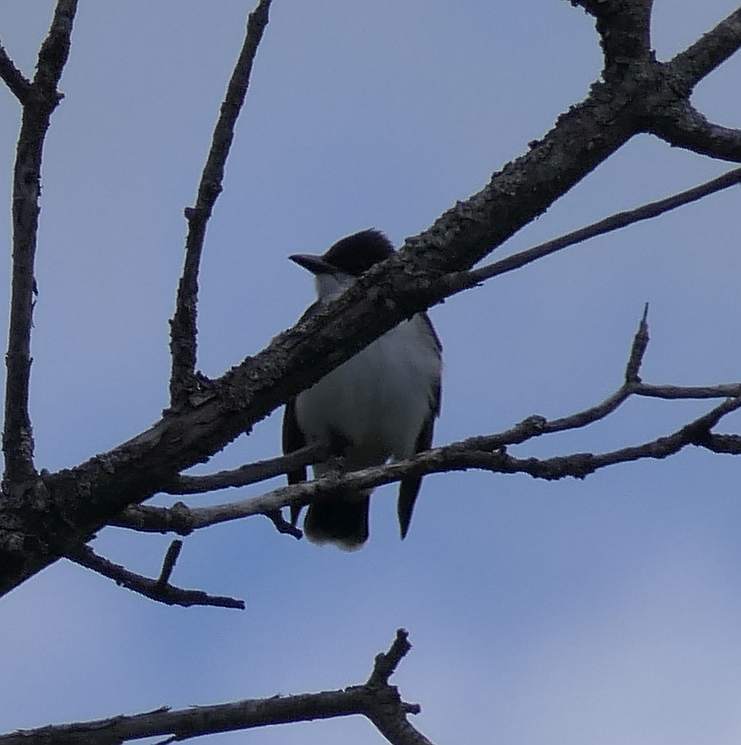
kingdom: Animalia
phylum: Chordata
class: Aves
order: Passeriformes
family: Tyrannidae
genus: Tyrannus
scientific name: Tyrannus tyrannus
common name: Eastern kingbird
